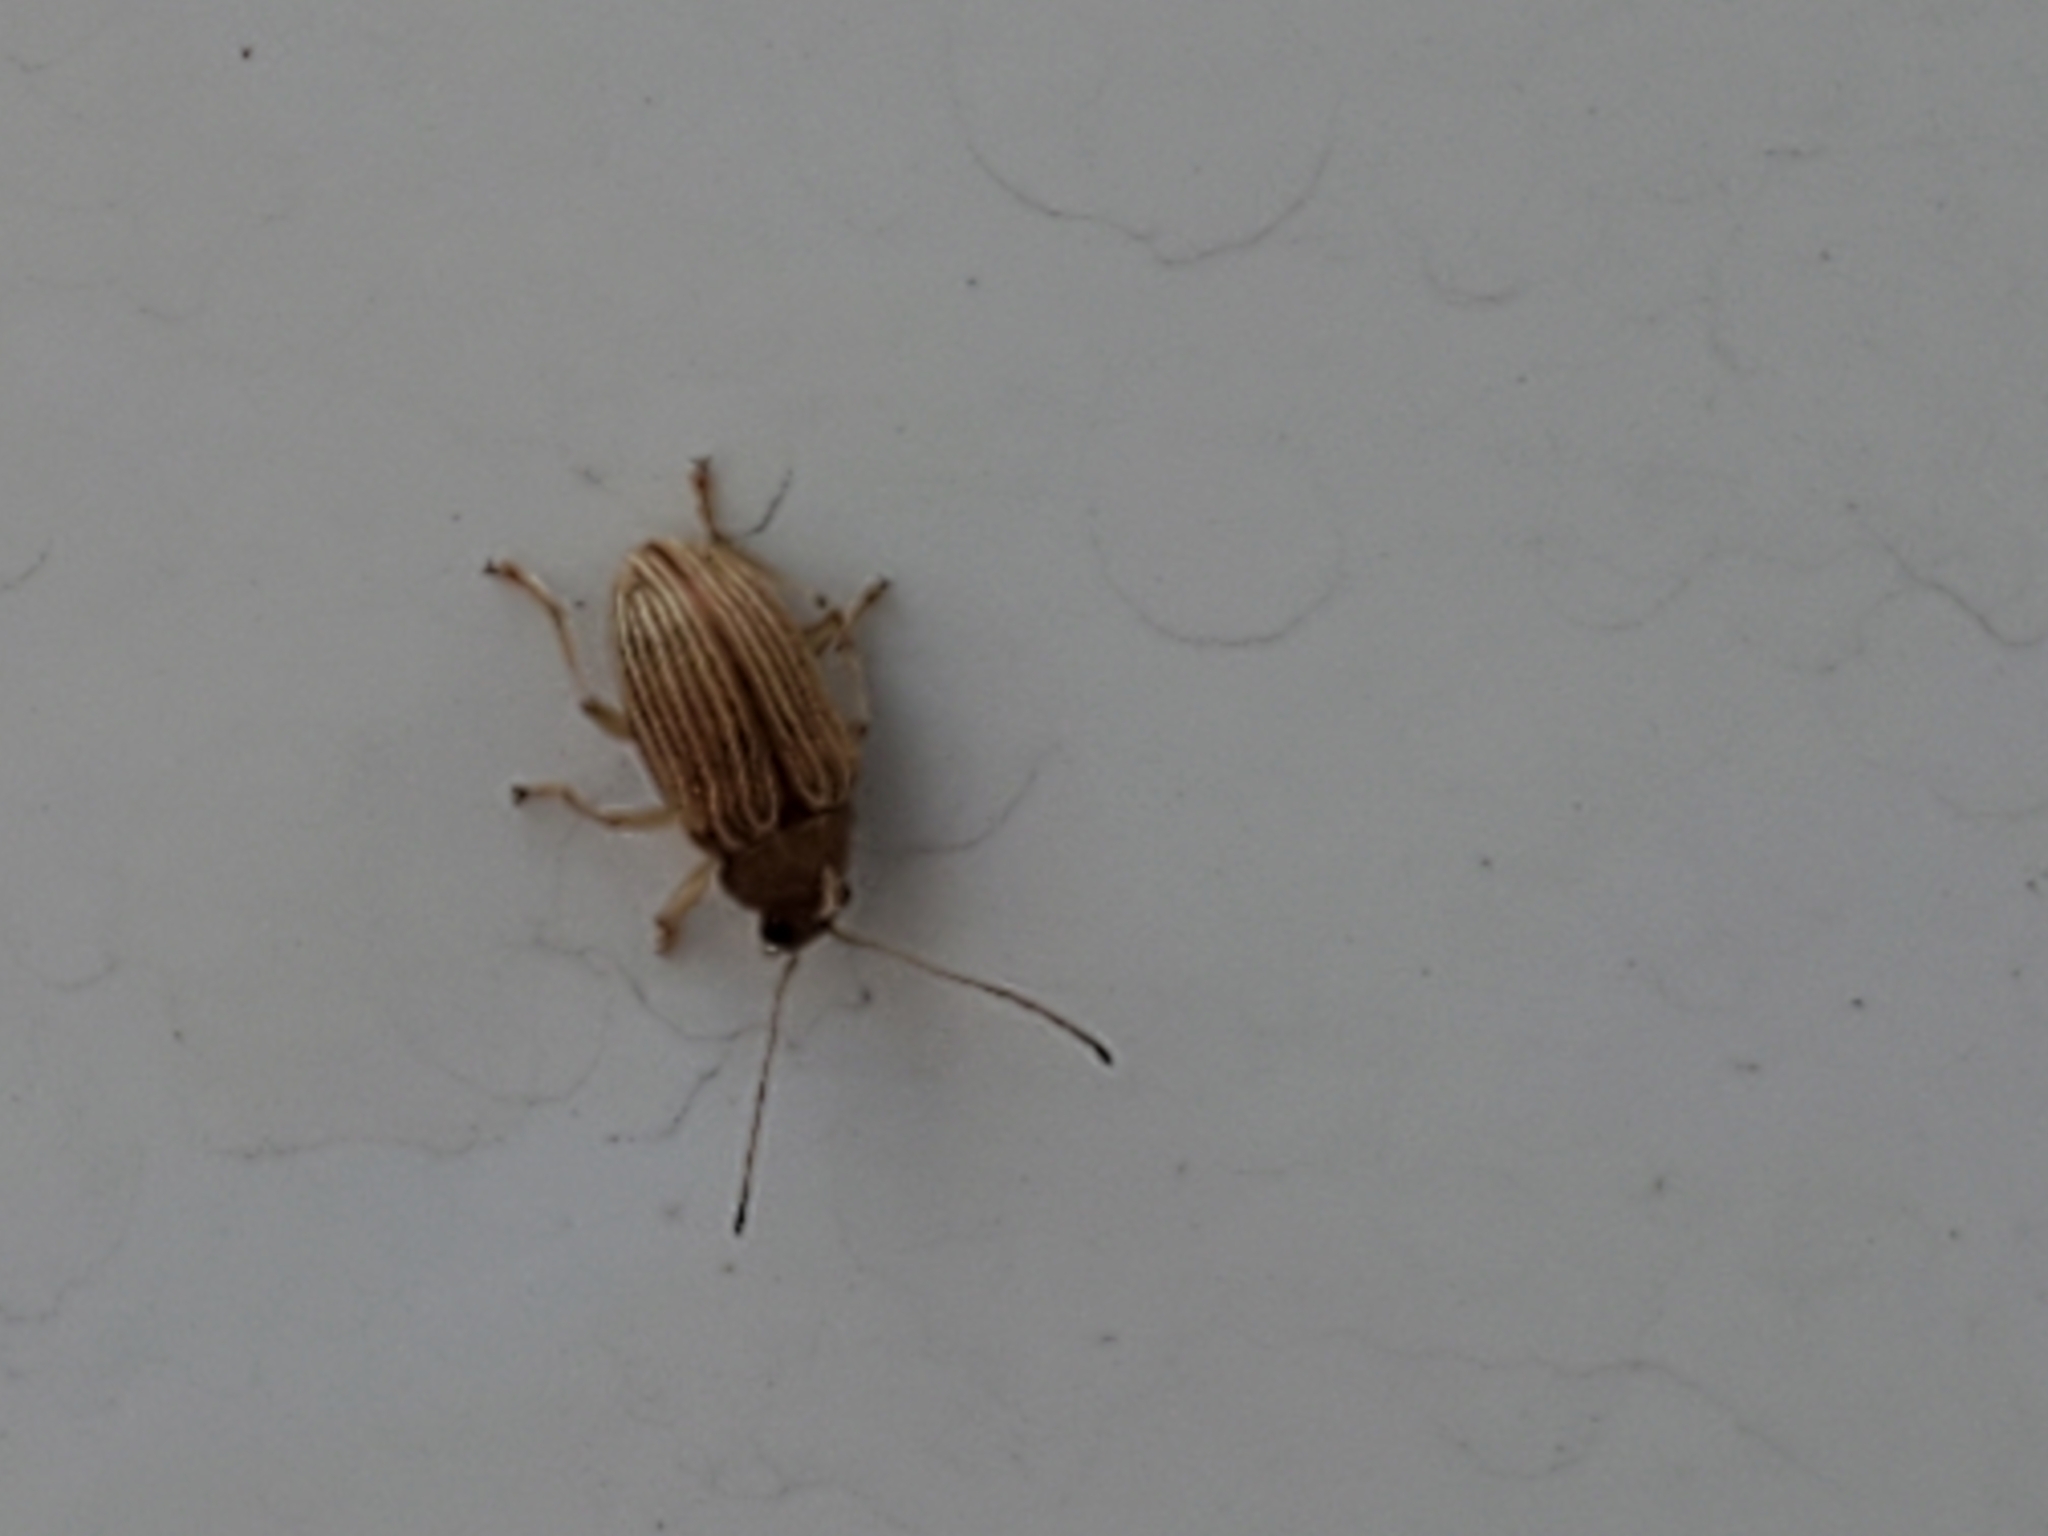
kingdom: Animalia
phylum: Arthropoda
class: Insecta
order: Coleoptera
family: Chrysomelidae
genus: Colaspis
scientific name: Colaspis brunnea
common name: Grape colaspis
